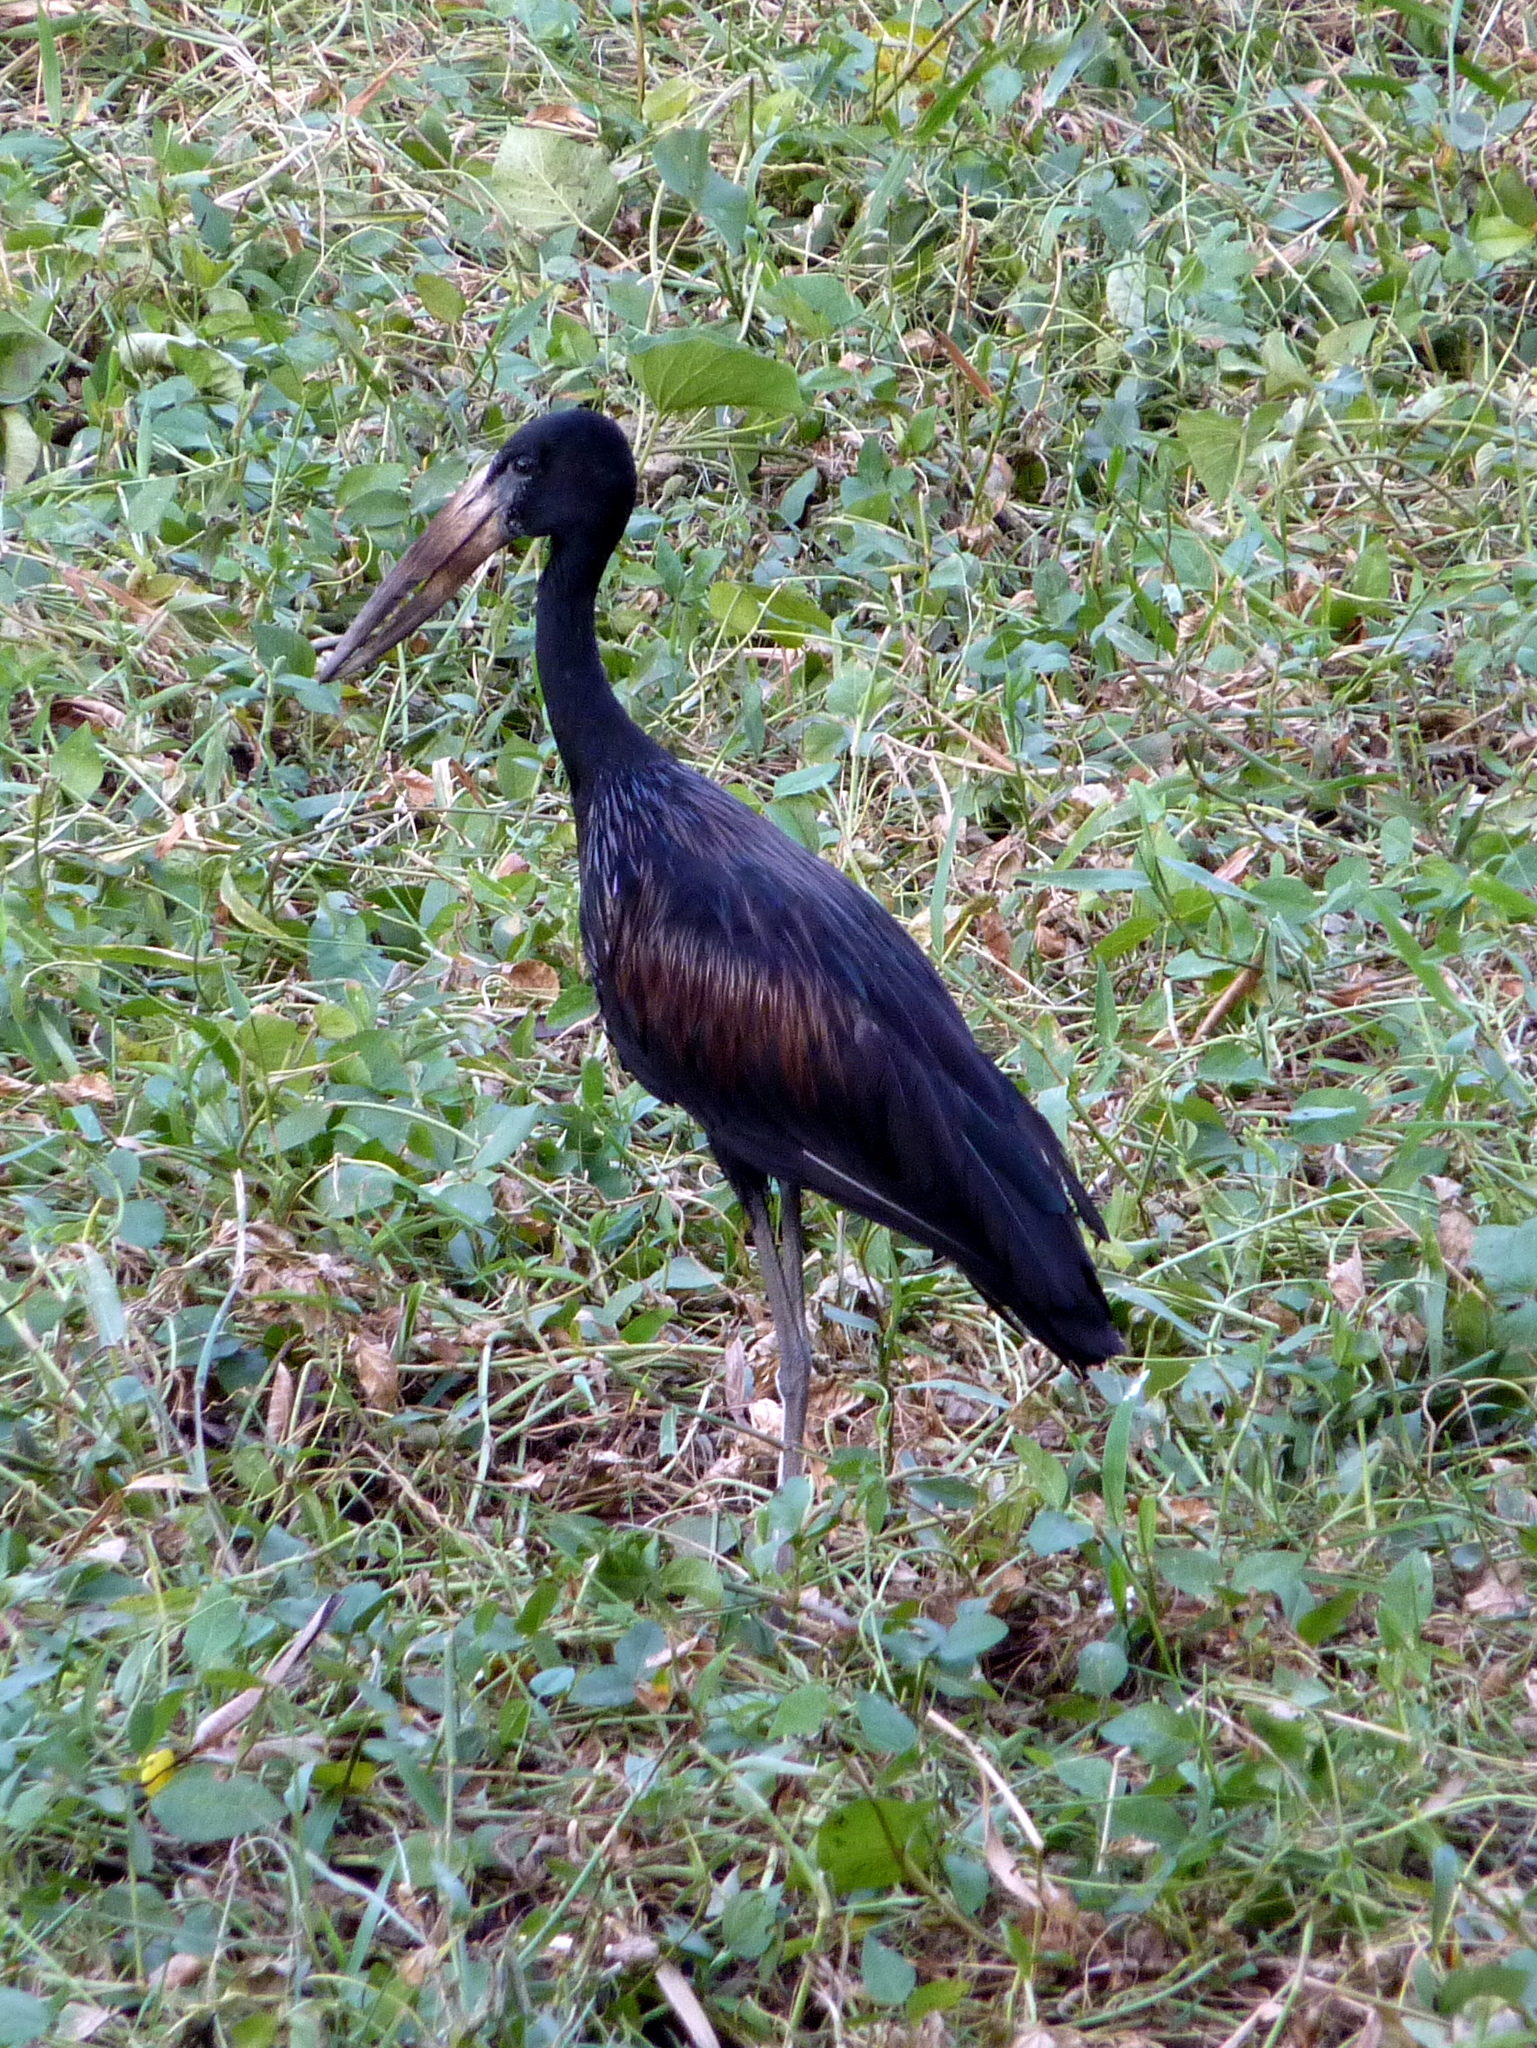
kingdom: Animalia
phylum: Chordata
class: Aves
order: Ciconiiformes
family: Ciconiidae
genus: Anastomus
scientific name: Anastomus lamelligerus
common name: African openbill
